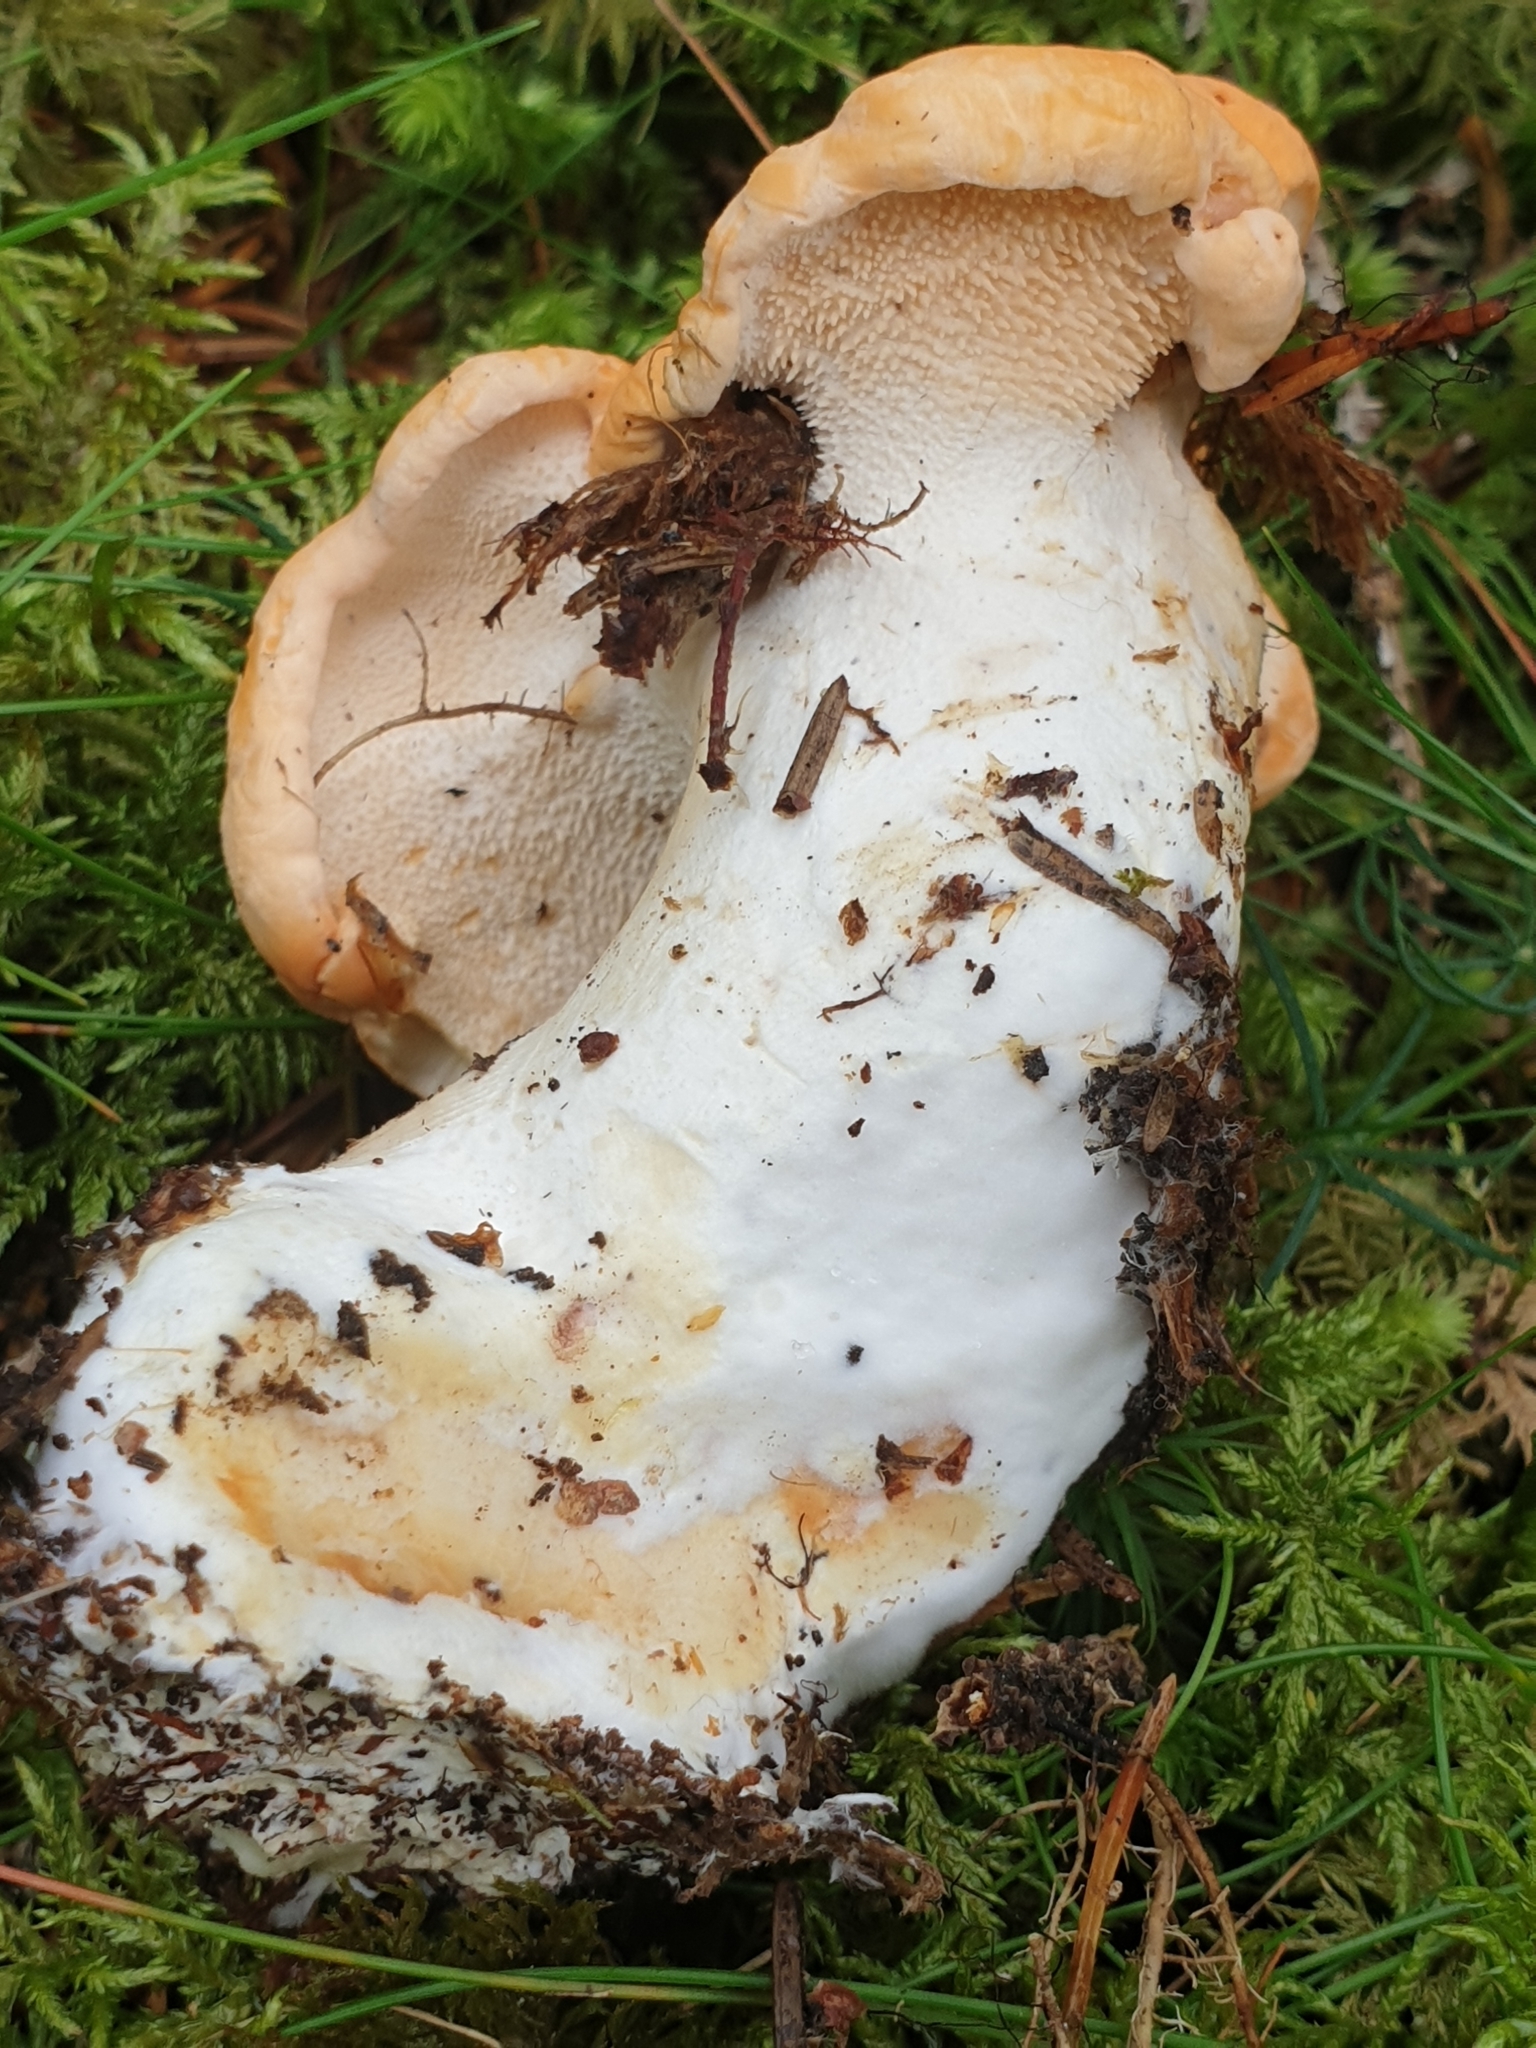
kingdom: Fungi
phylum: Basidiomycota
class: Agaricomycetes
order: Cantharellales
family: Hydnaceae
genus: Hydnum
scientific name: Hydnum rufescens
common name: Terracotta hedgehog
